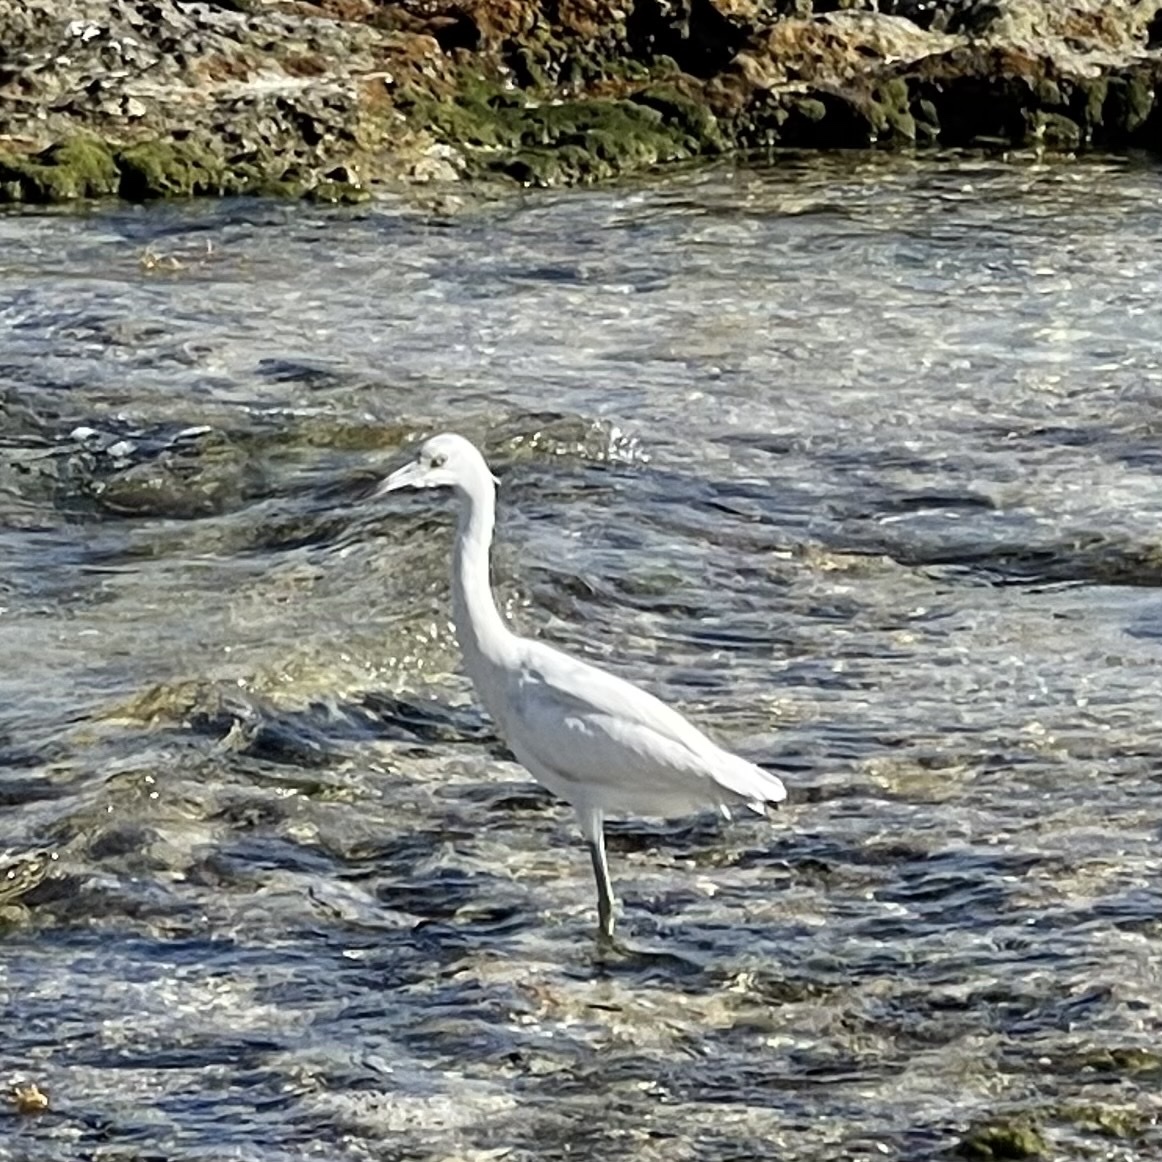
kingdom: Animalia
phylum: Chordata
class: Aves
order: Pelecaniformes
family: Ardeidae
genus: Egretta
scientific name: Egretta caerulea
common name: Little blue heron
